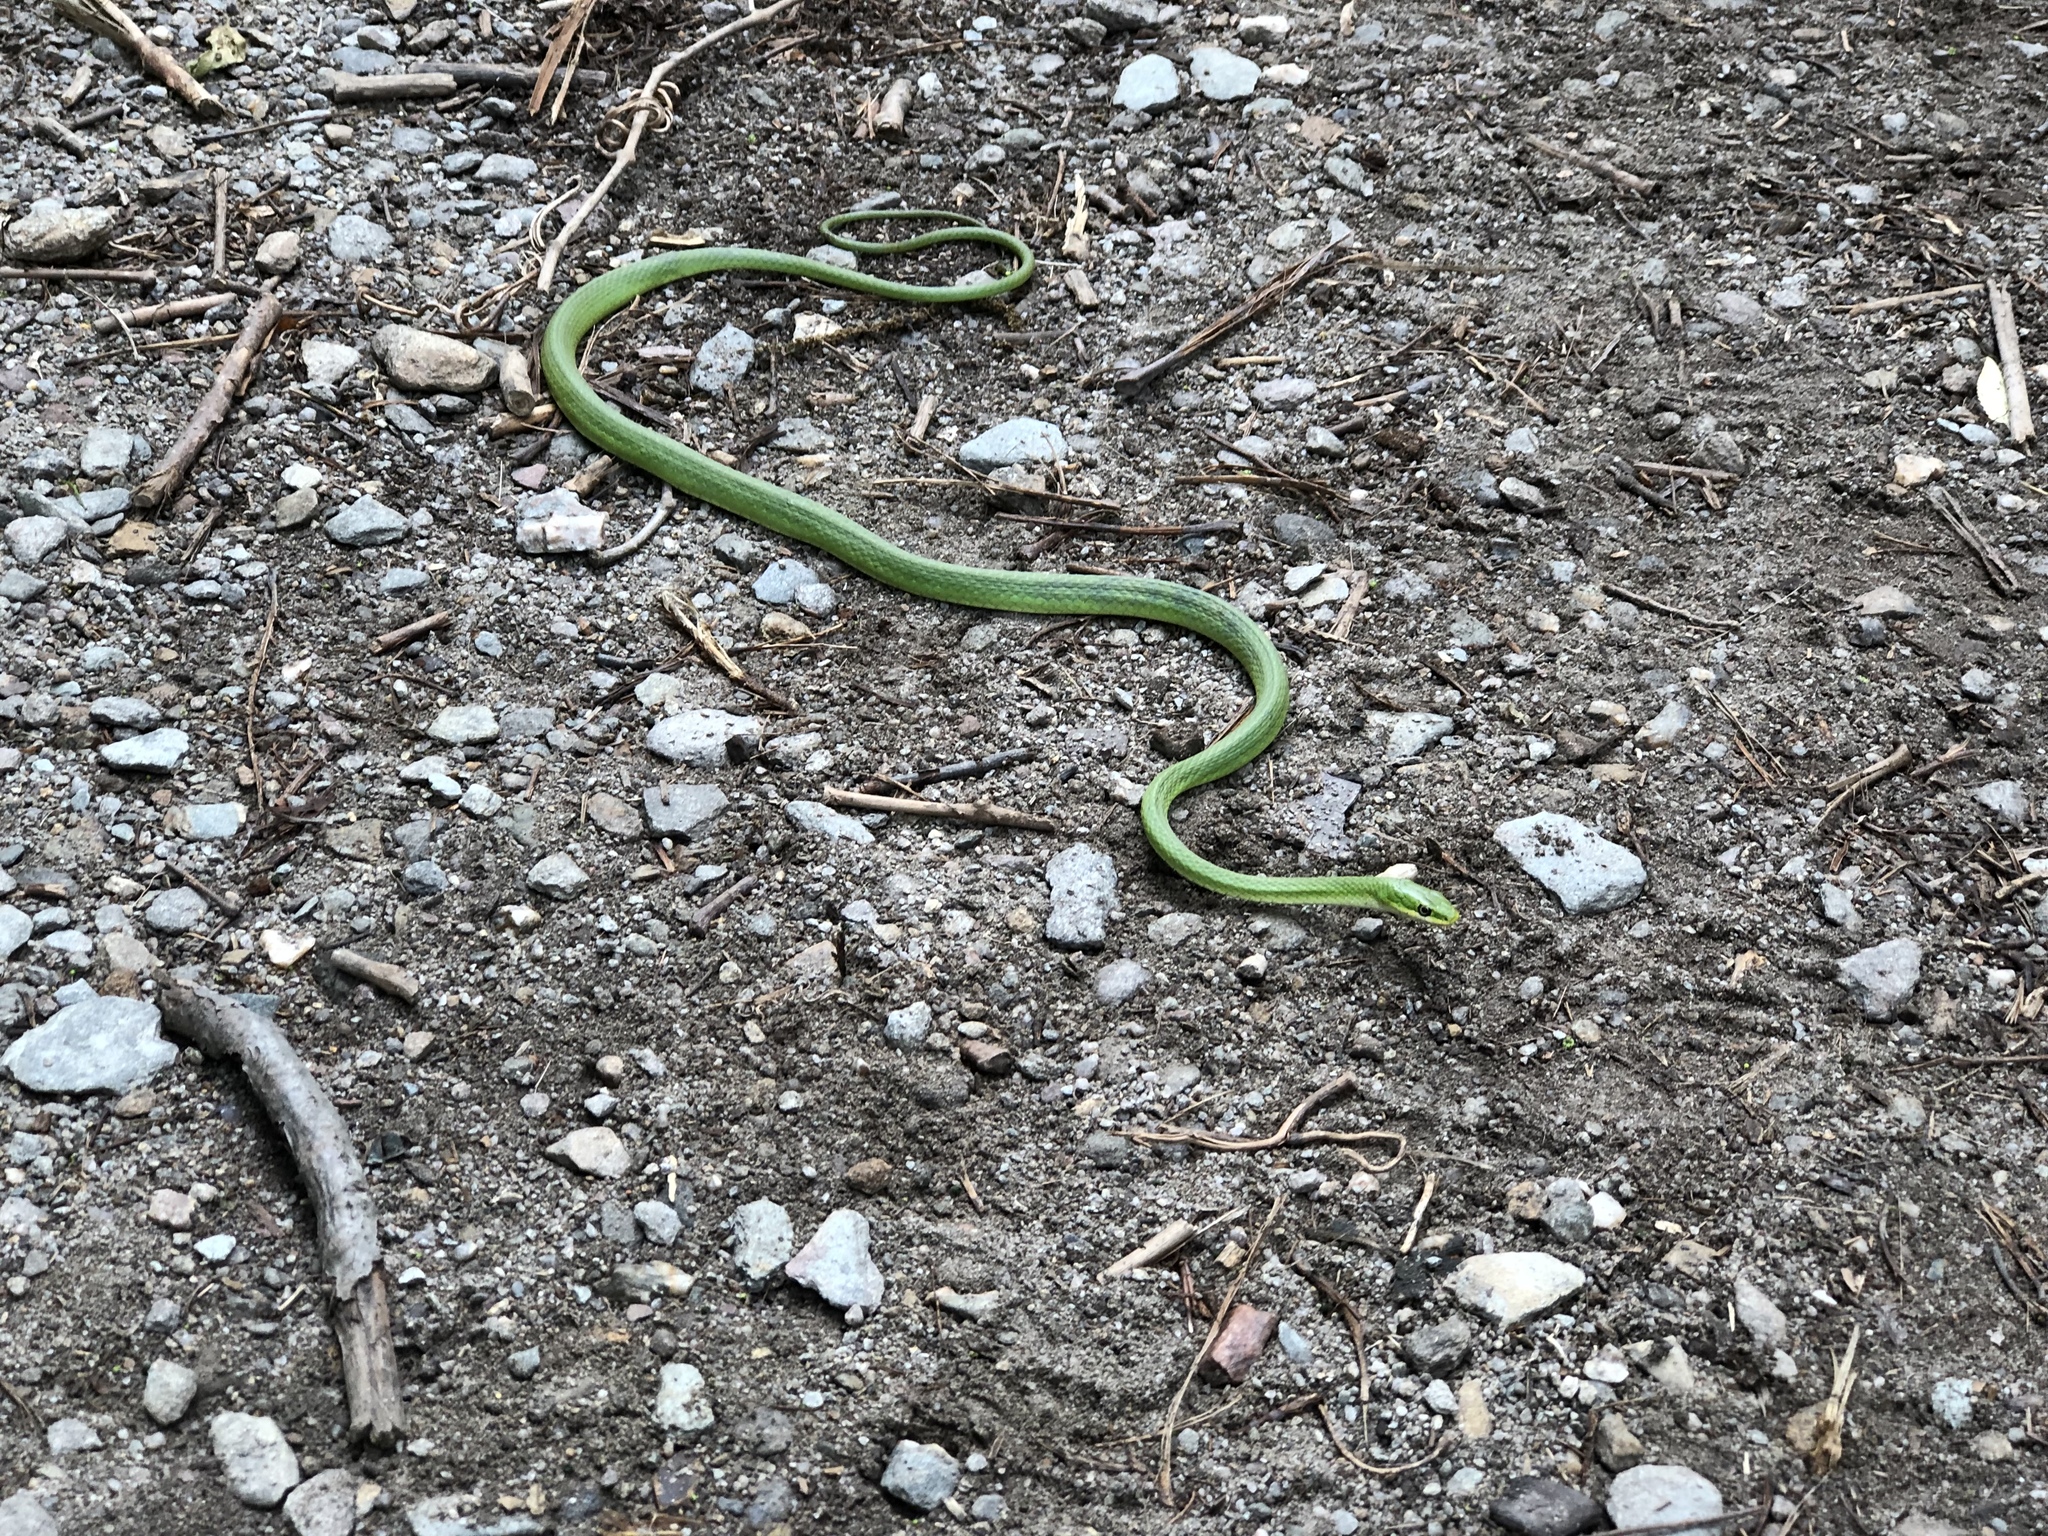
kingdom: Animalia
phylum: Chordata
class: Squamata
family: Colubridae
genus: Opheodrys
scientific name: Opheodrys aestivus
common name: Rough greensnake
